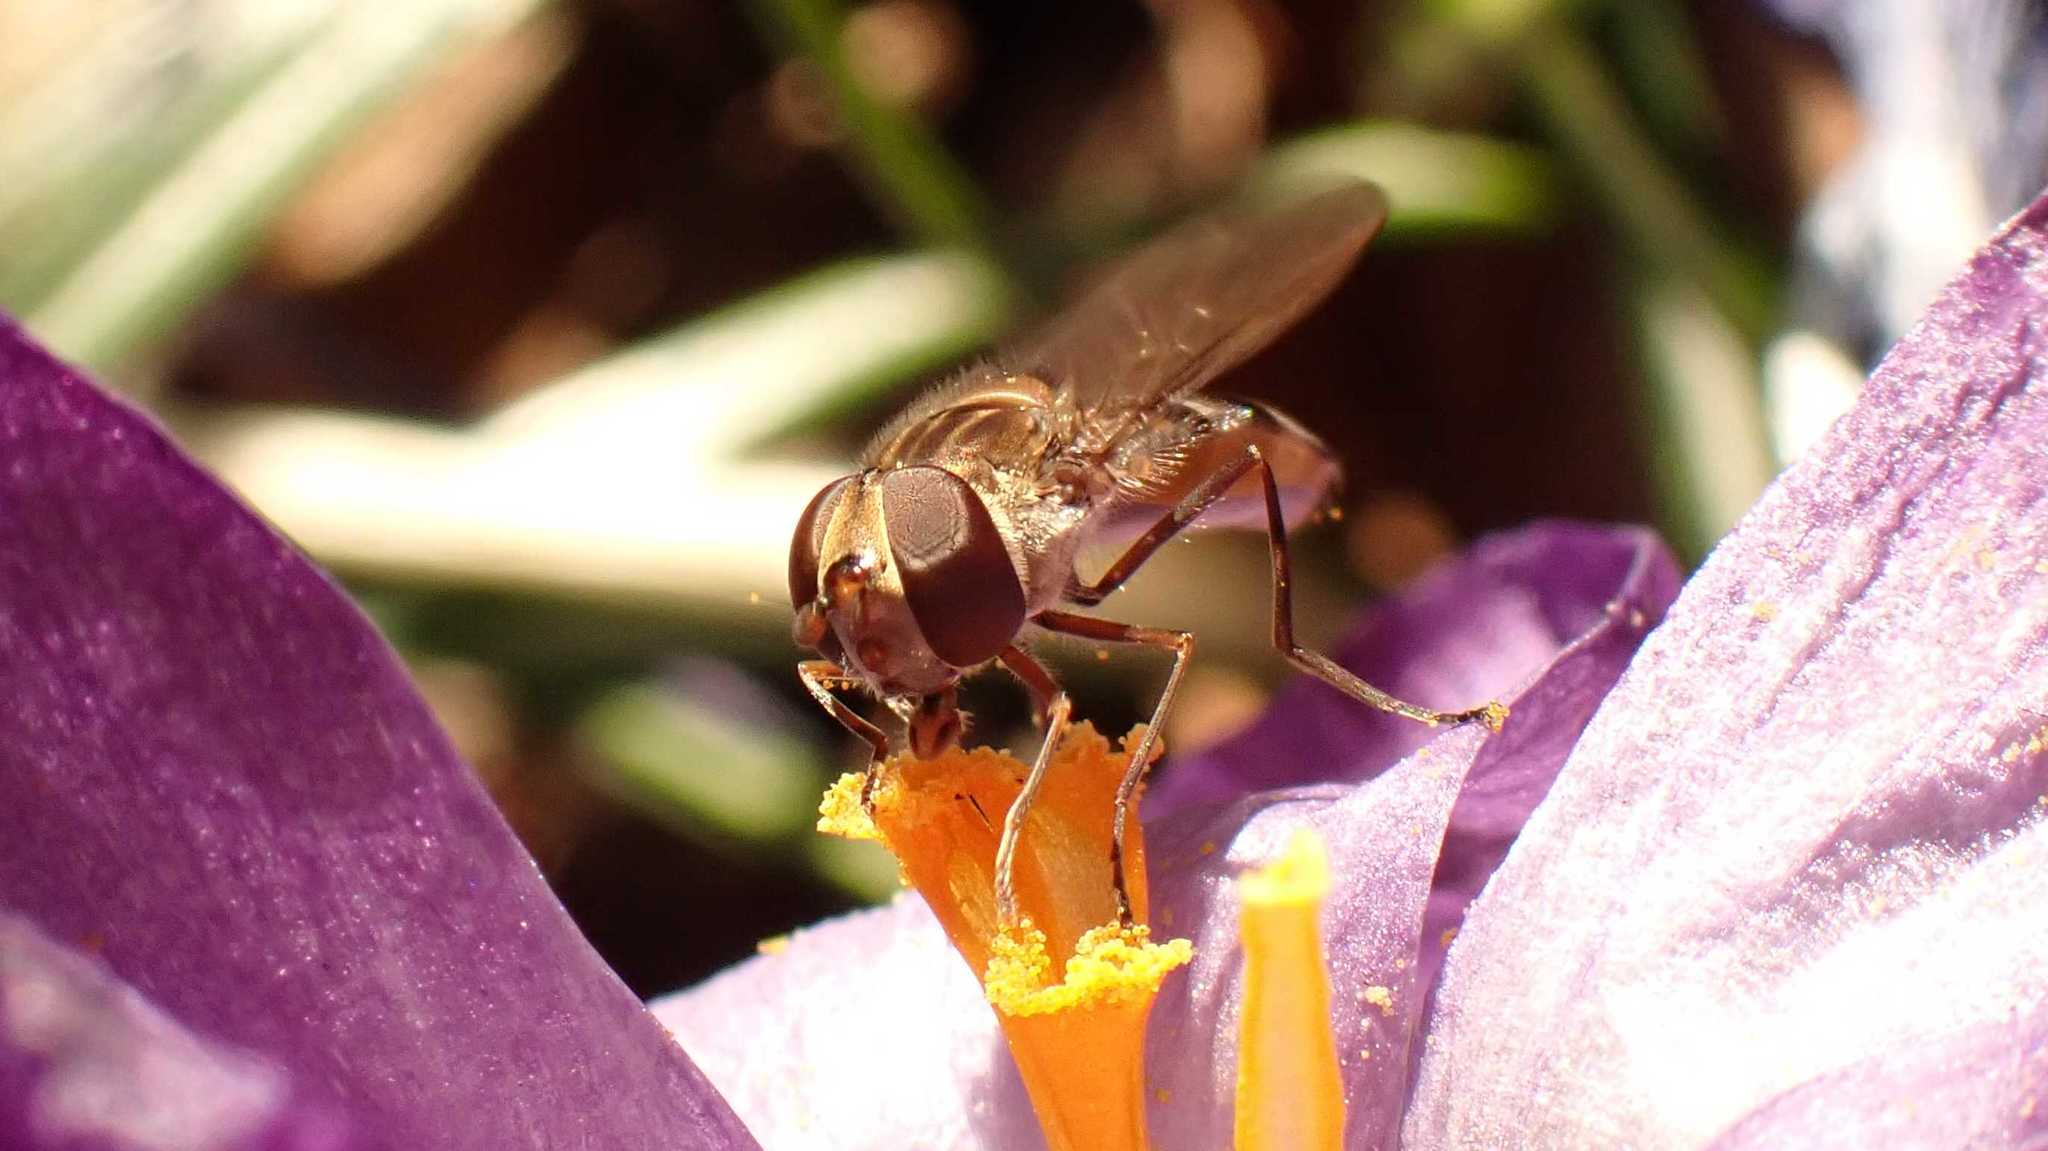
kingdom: Animalia
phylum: Arthropoda
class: Insecta
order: Diptera
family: Syrphidae
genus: Episyrphus
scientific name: Episyrphus balteatus
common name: Marmalade hoverfly
